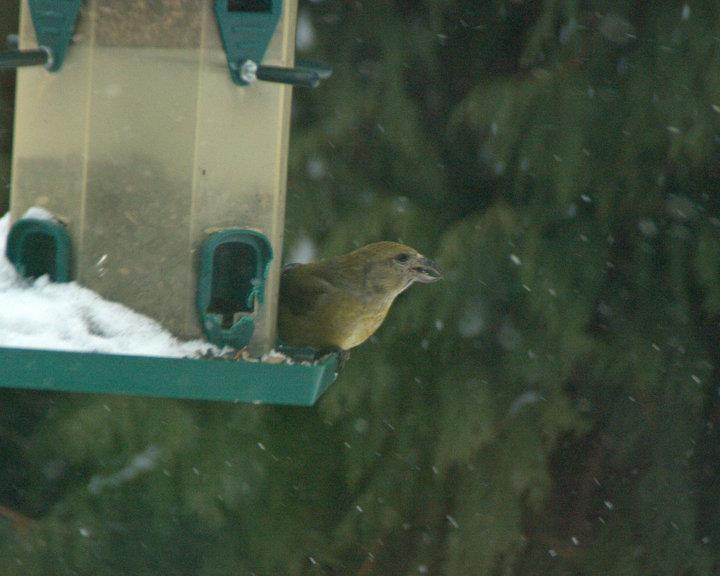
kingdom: Animalia
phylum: Chordata
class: Aves
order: Passeriformes
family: Fringillidae
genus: Loxia
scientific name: Loxia curvirostra
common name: Red crossbill
